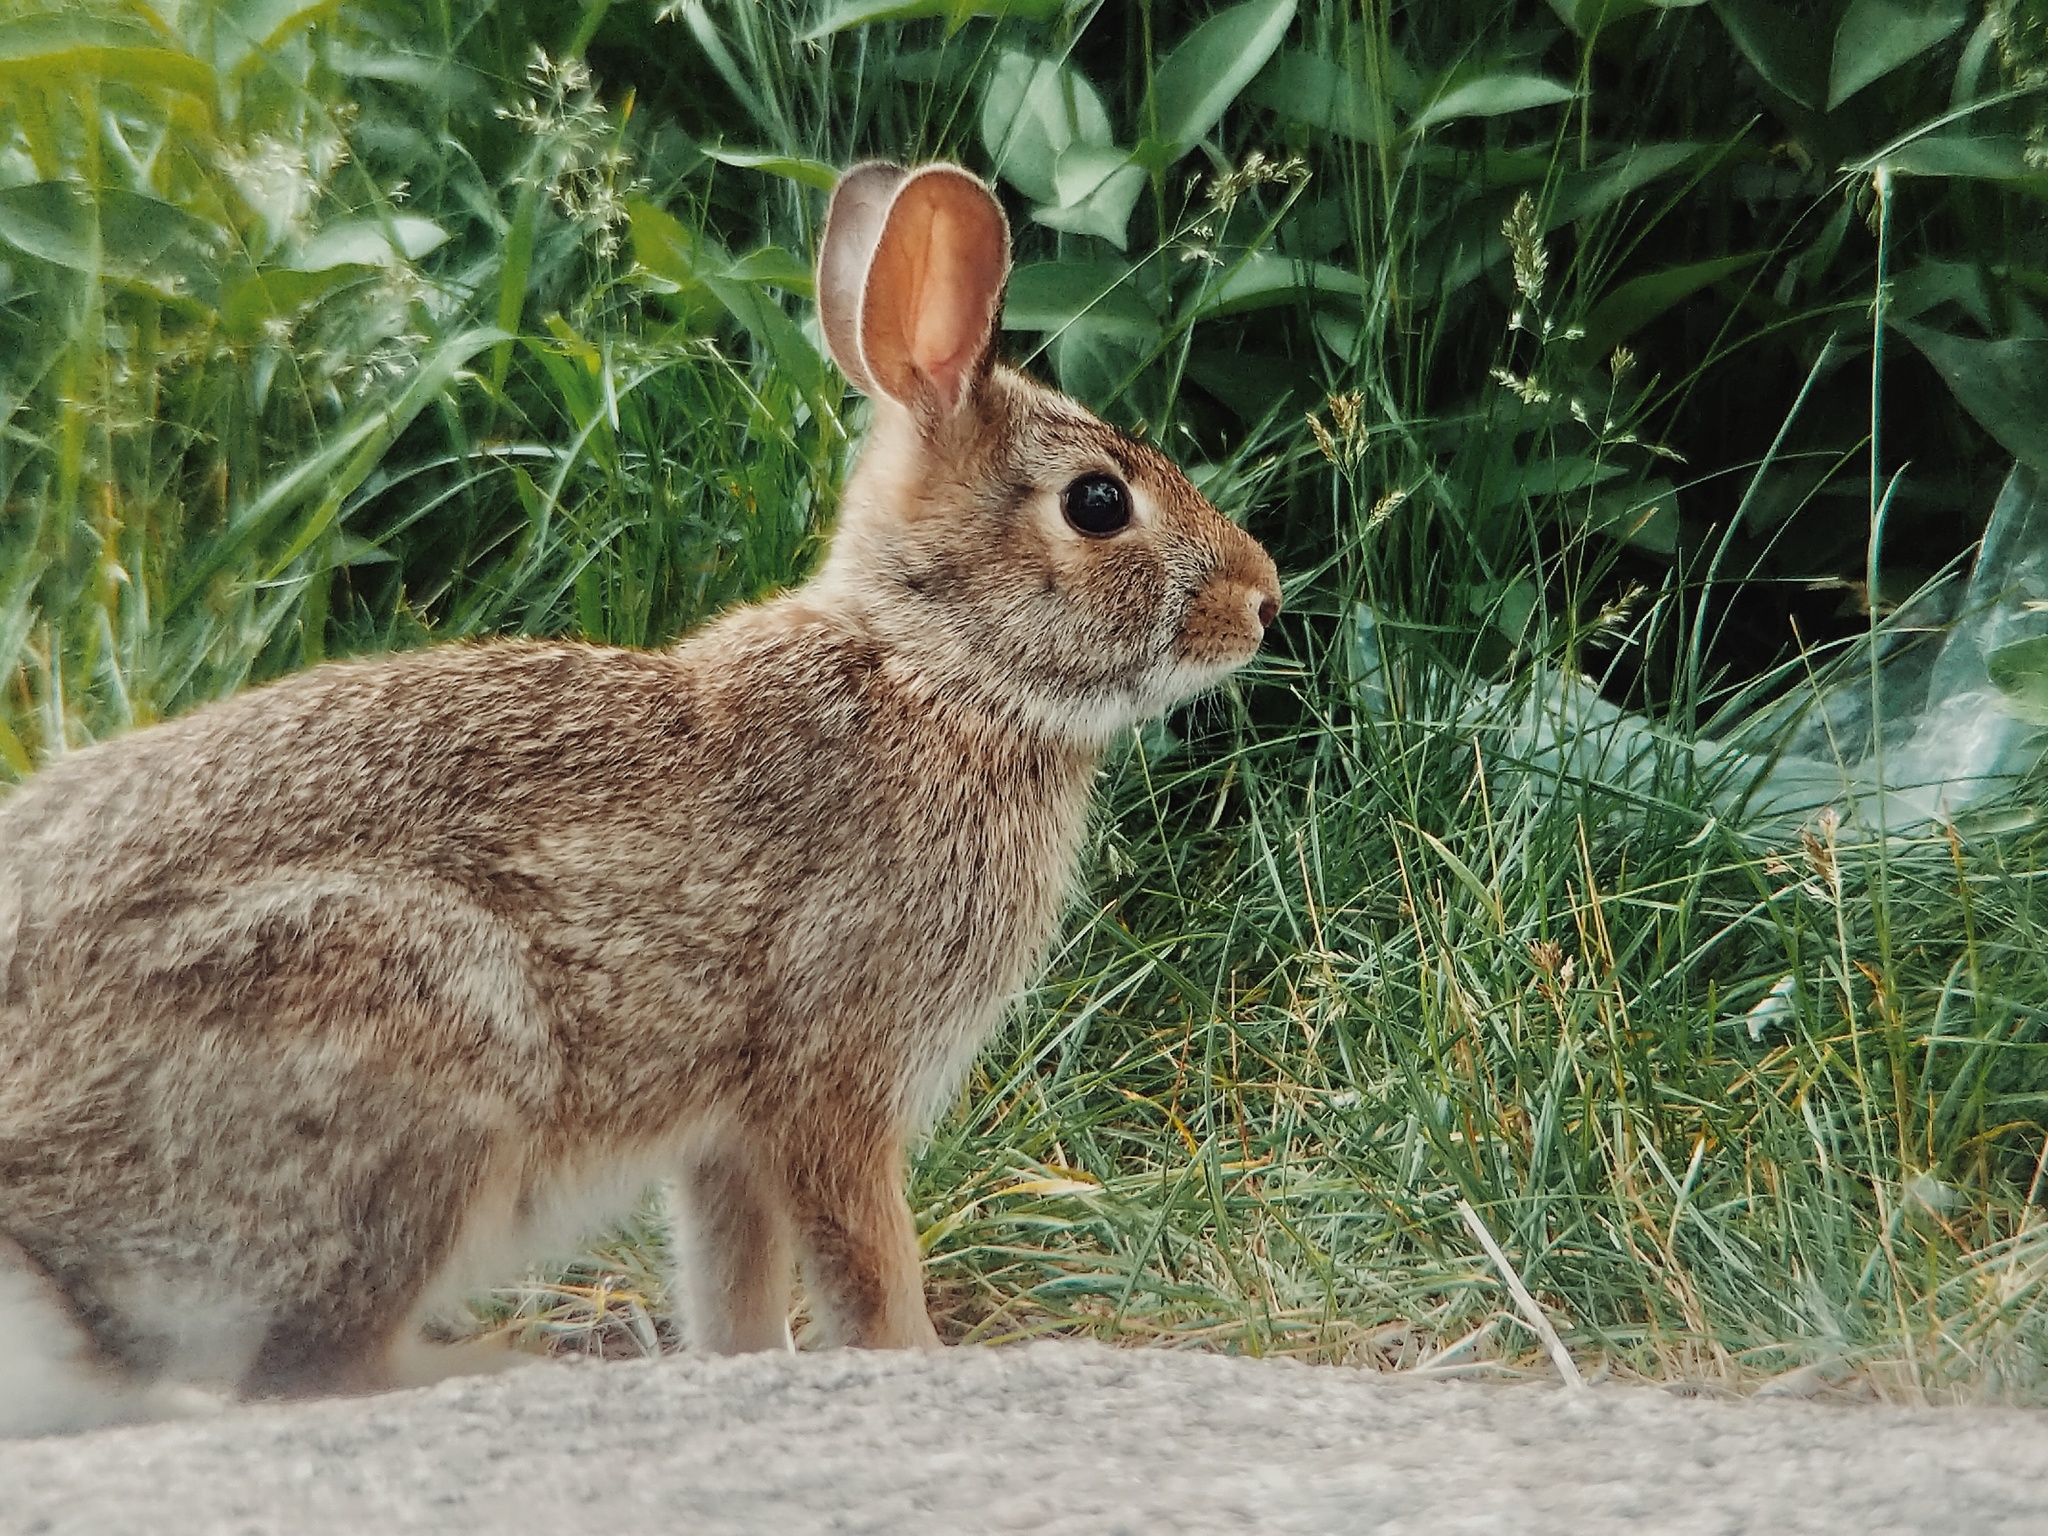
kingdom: Animalia
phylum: Chordata
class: Mammalia
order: Lagomorpha
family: Leporidae
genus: Sylvilagus
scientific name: Sylvilagus floridanus
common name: Eastern cottontail
